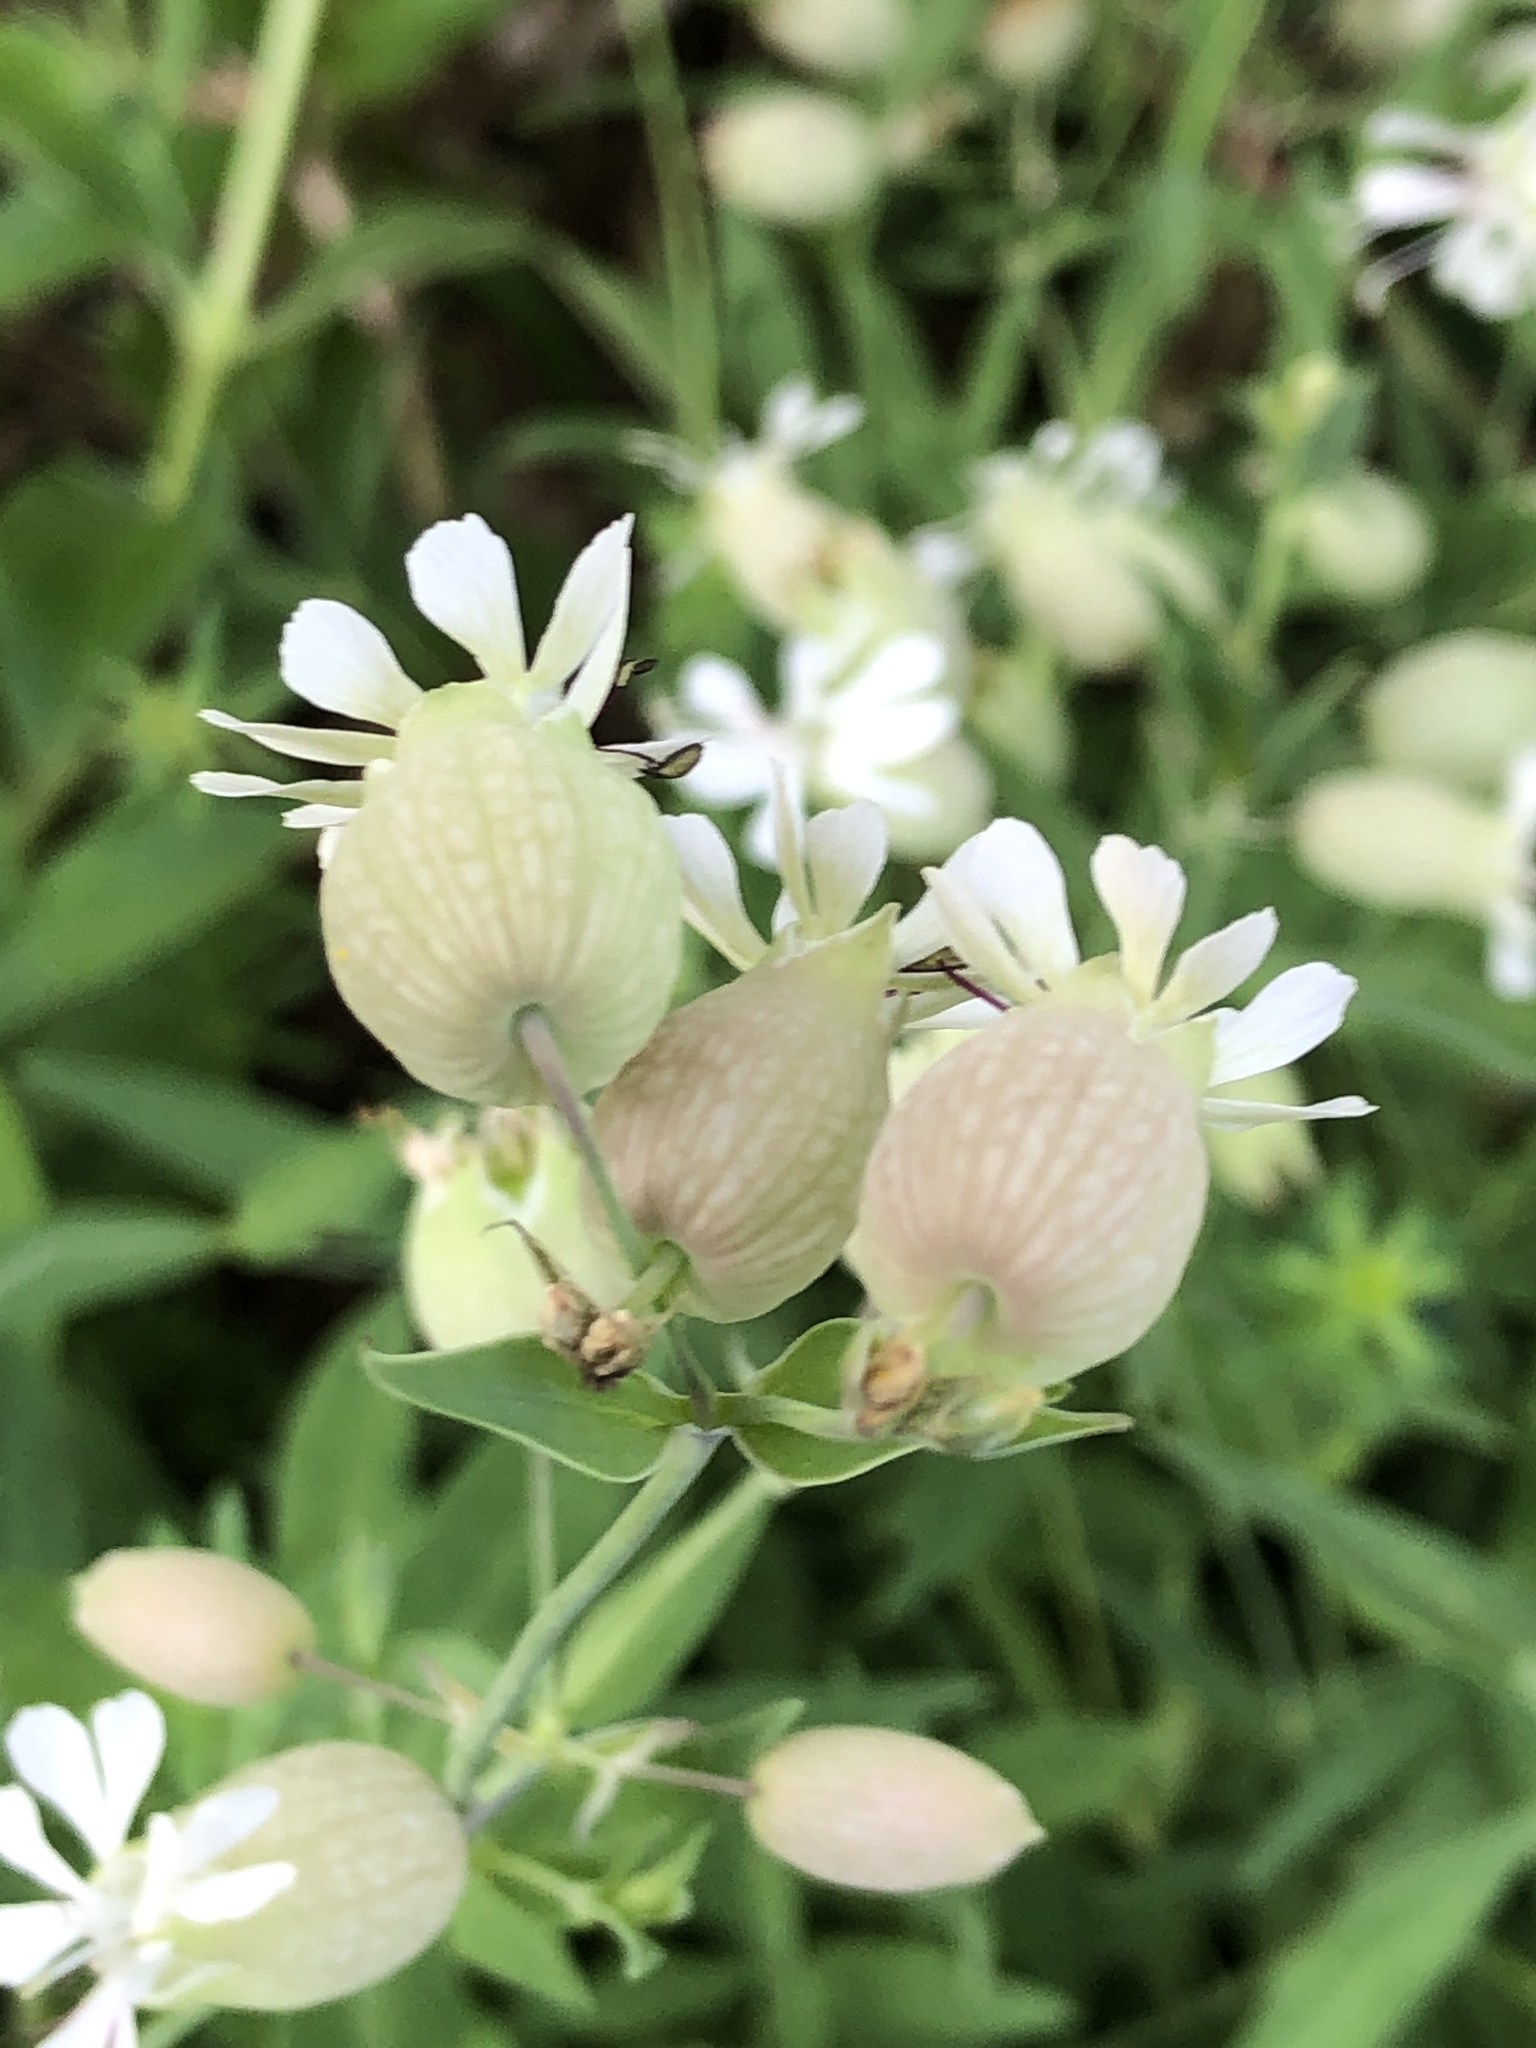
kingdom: Plantae
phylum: Tracheophyta
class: Magnoliopsida
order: Caryophyllales
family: Caryophyllaceae
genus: Silene
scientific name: Silene vulgaris
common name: Bladder campion
